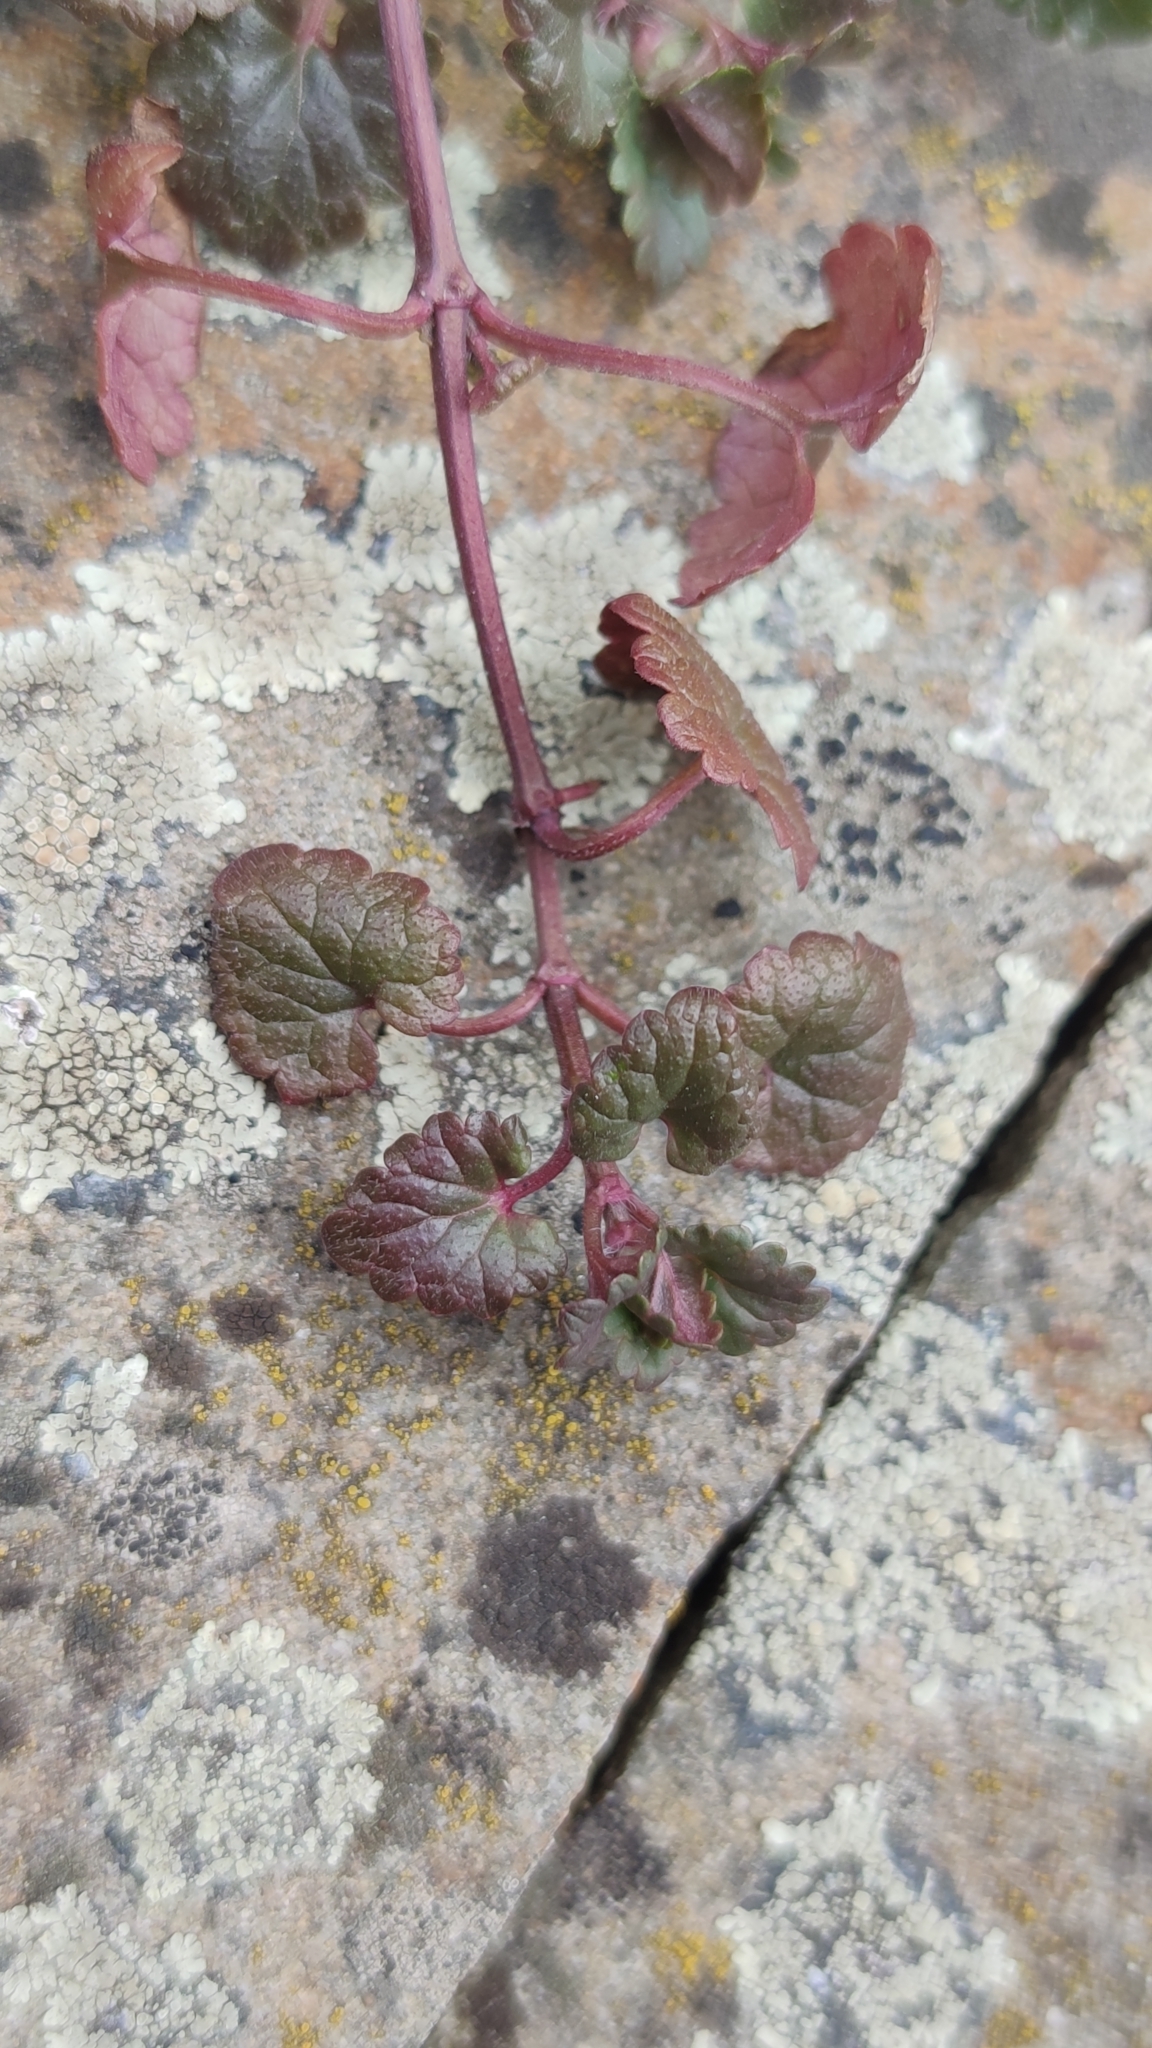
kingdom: Plantae
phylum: Tracheophyta
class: Magnoliopsida
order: Lamiales
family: Lamiaceae
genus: Glechoma
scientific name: Glechoma hederacea
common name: Ground ivy
